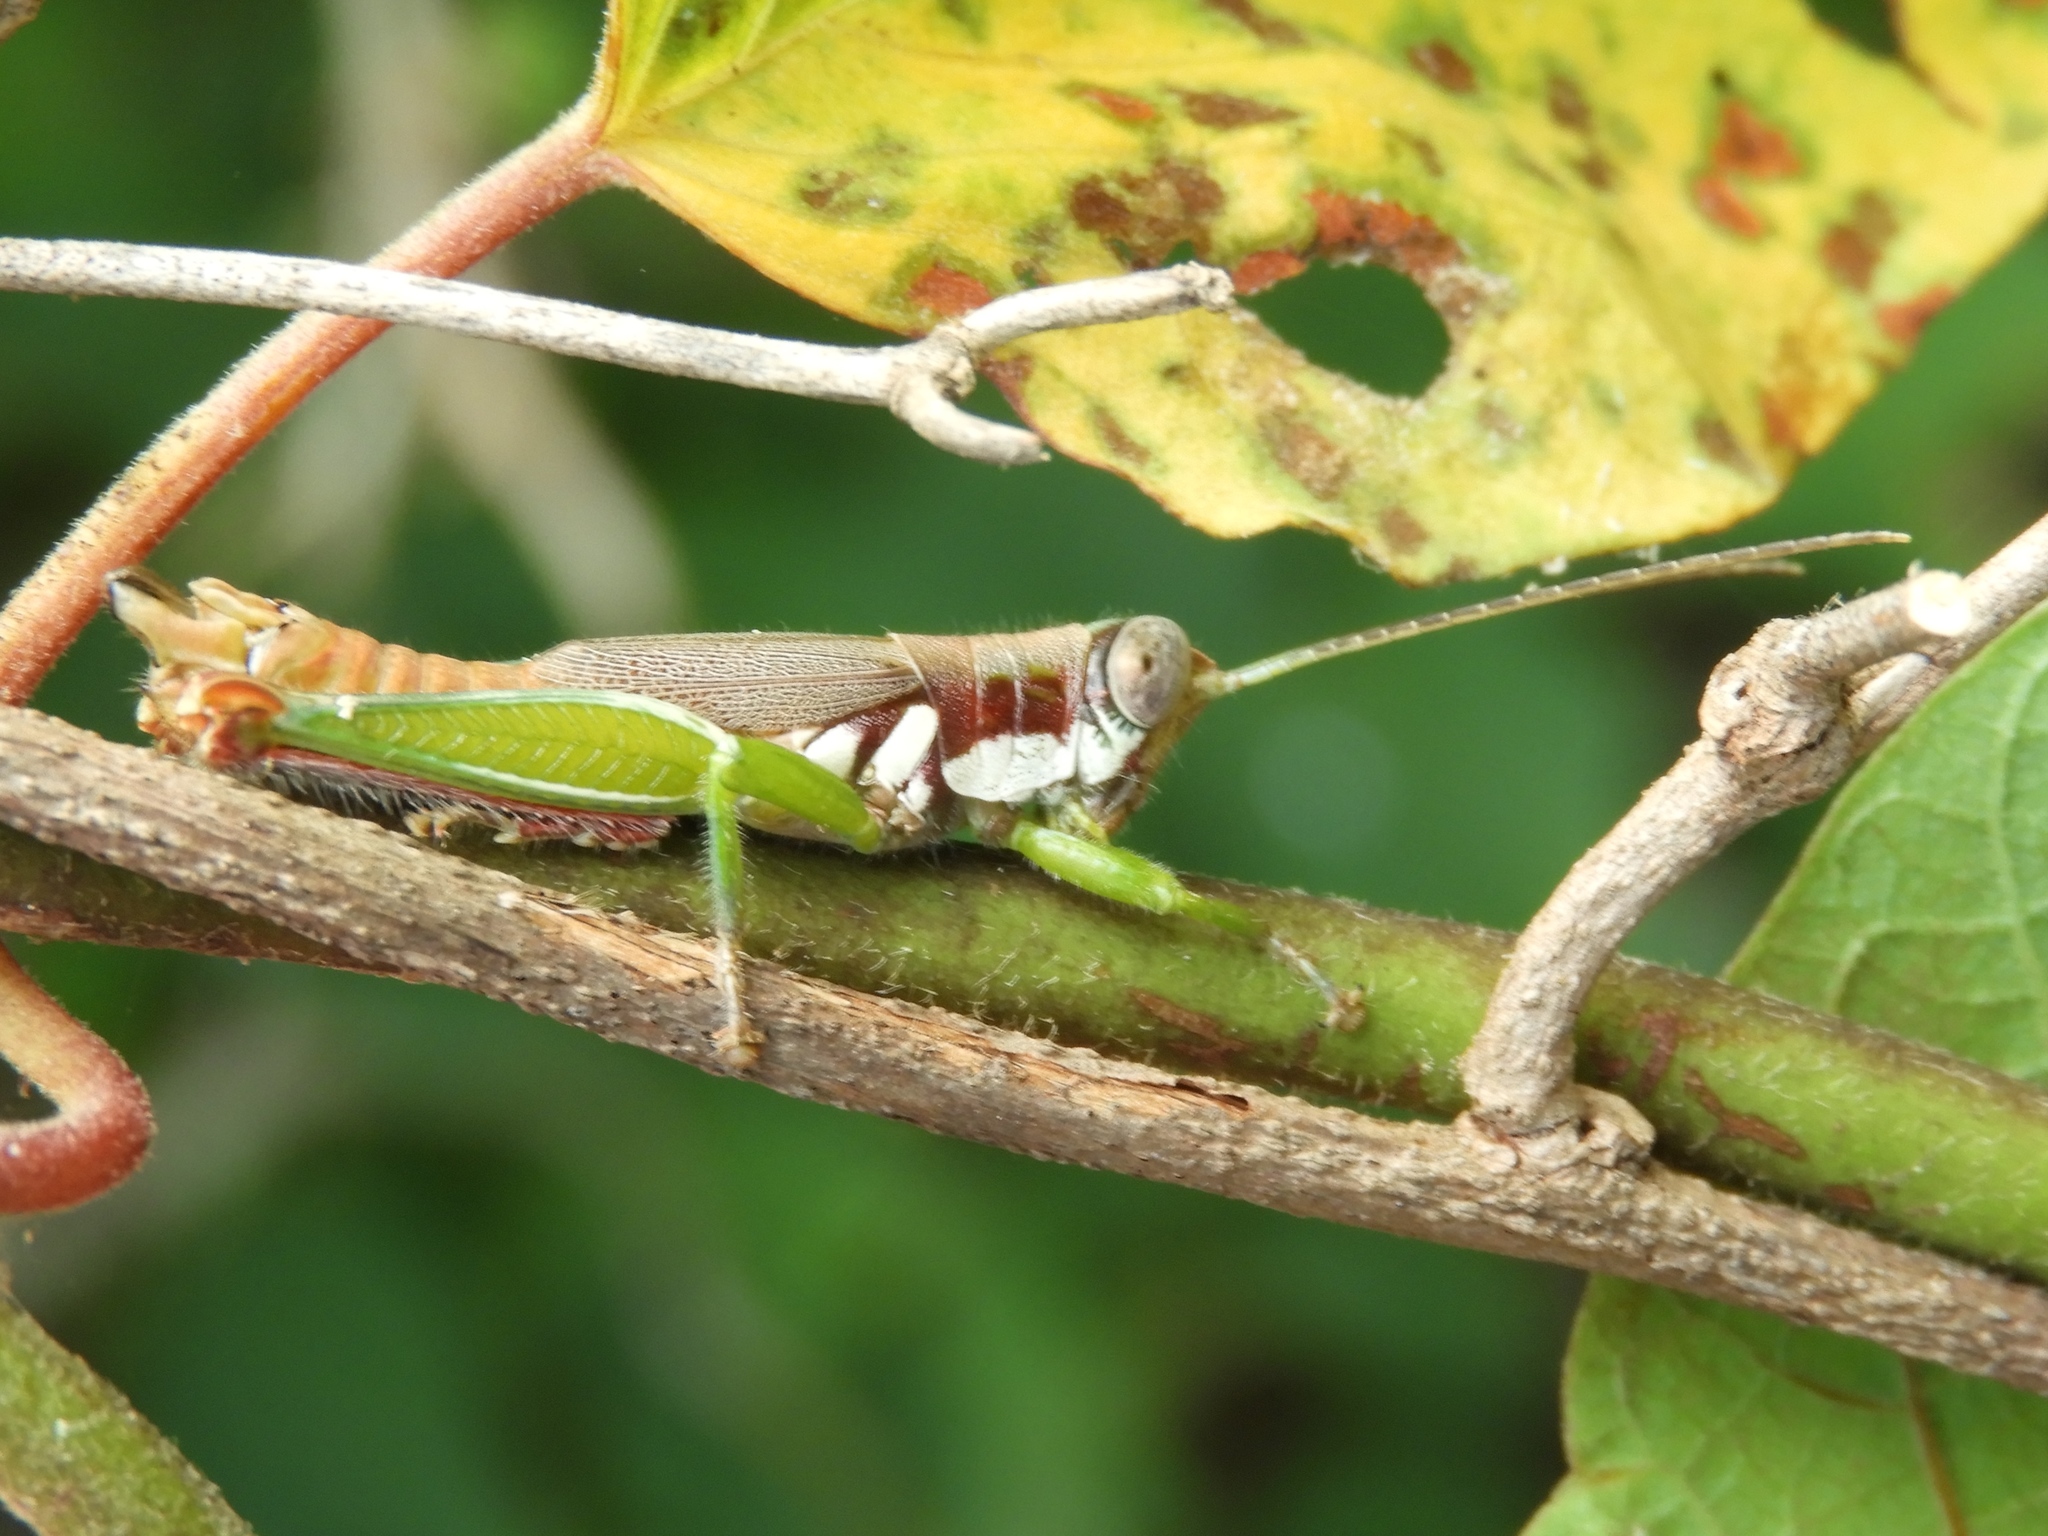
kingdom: Animalia
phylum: Arthropoda
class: Insecta
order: Orthoptera
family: Acrididae
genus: Proctolabus
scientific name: Proctolabus cerciatus
